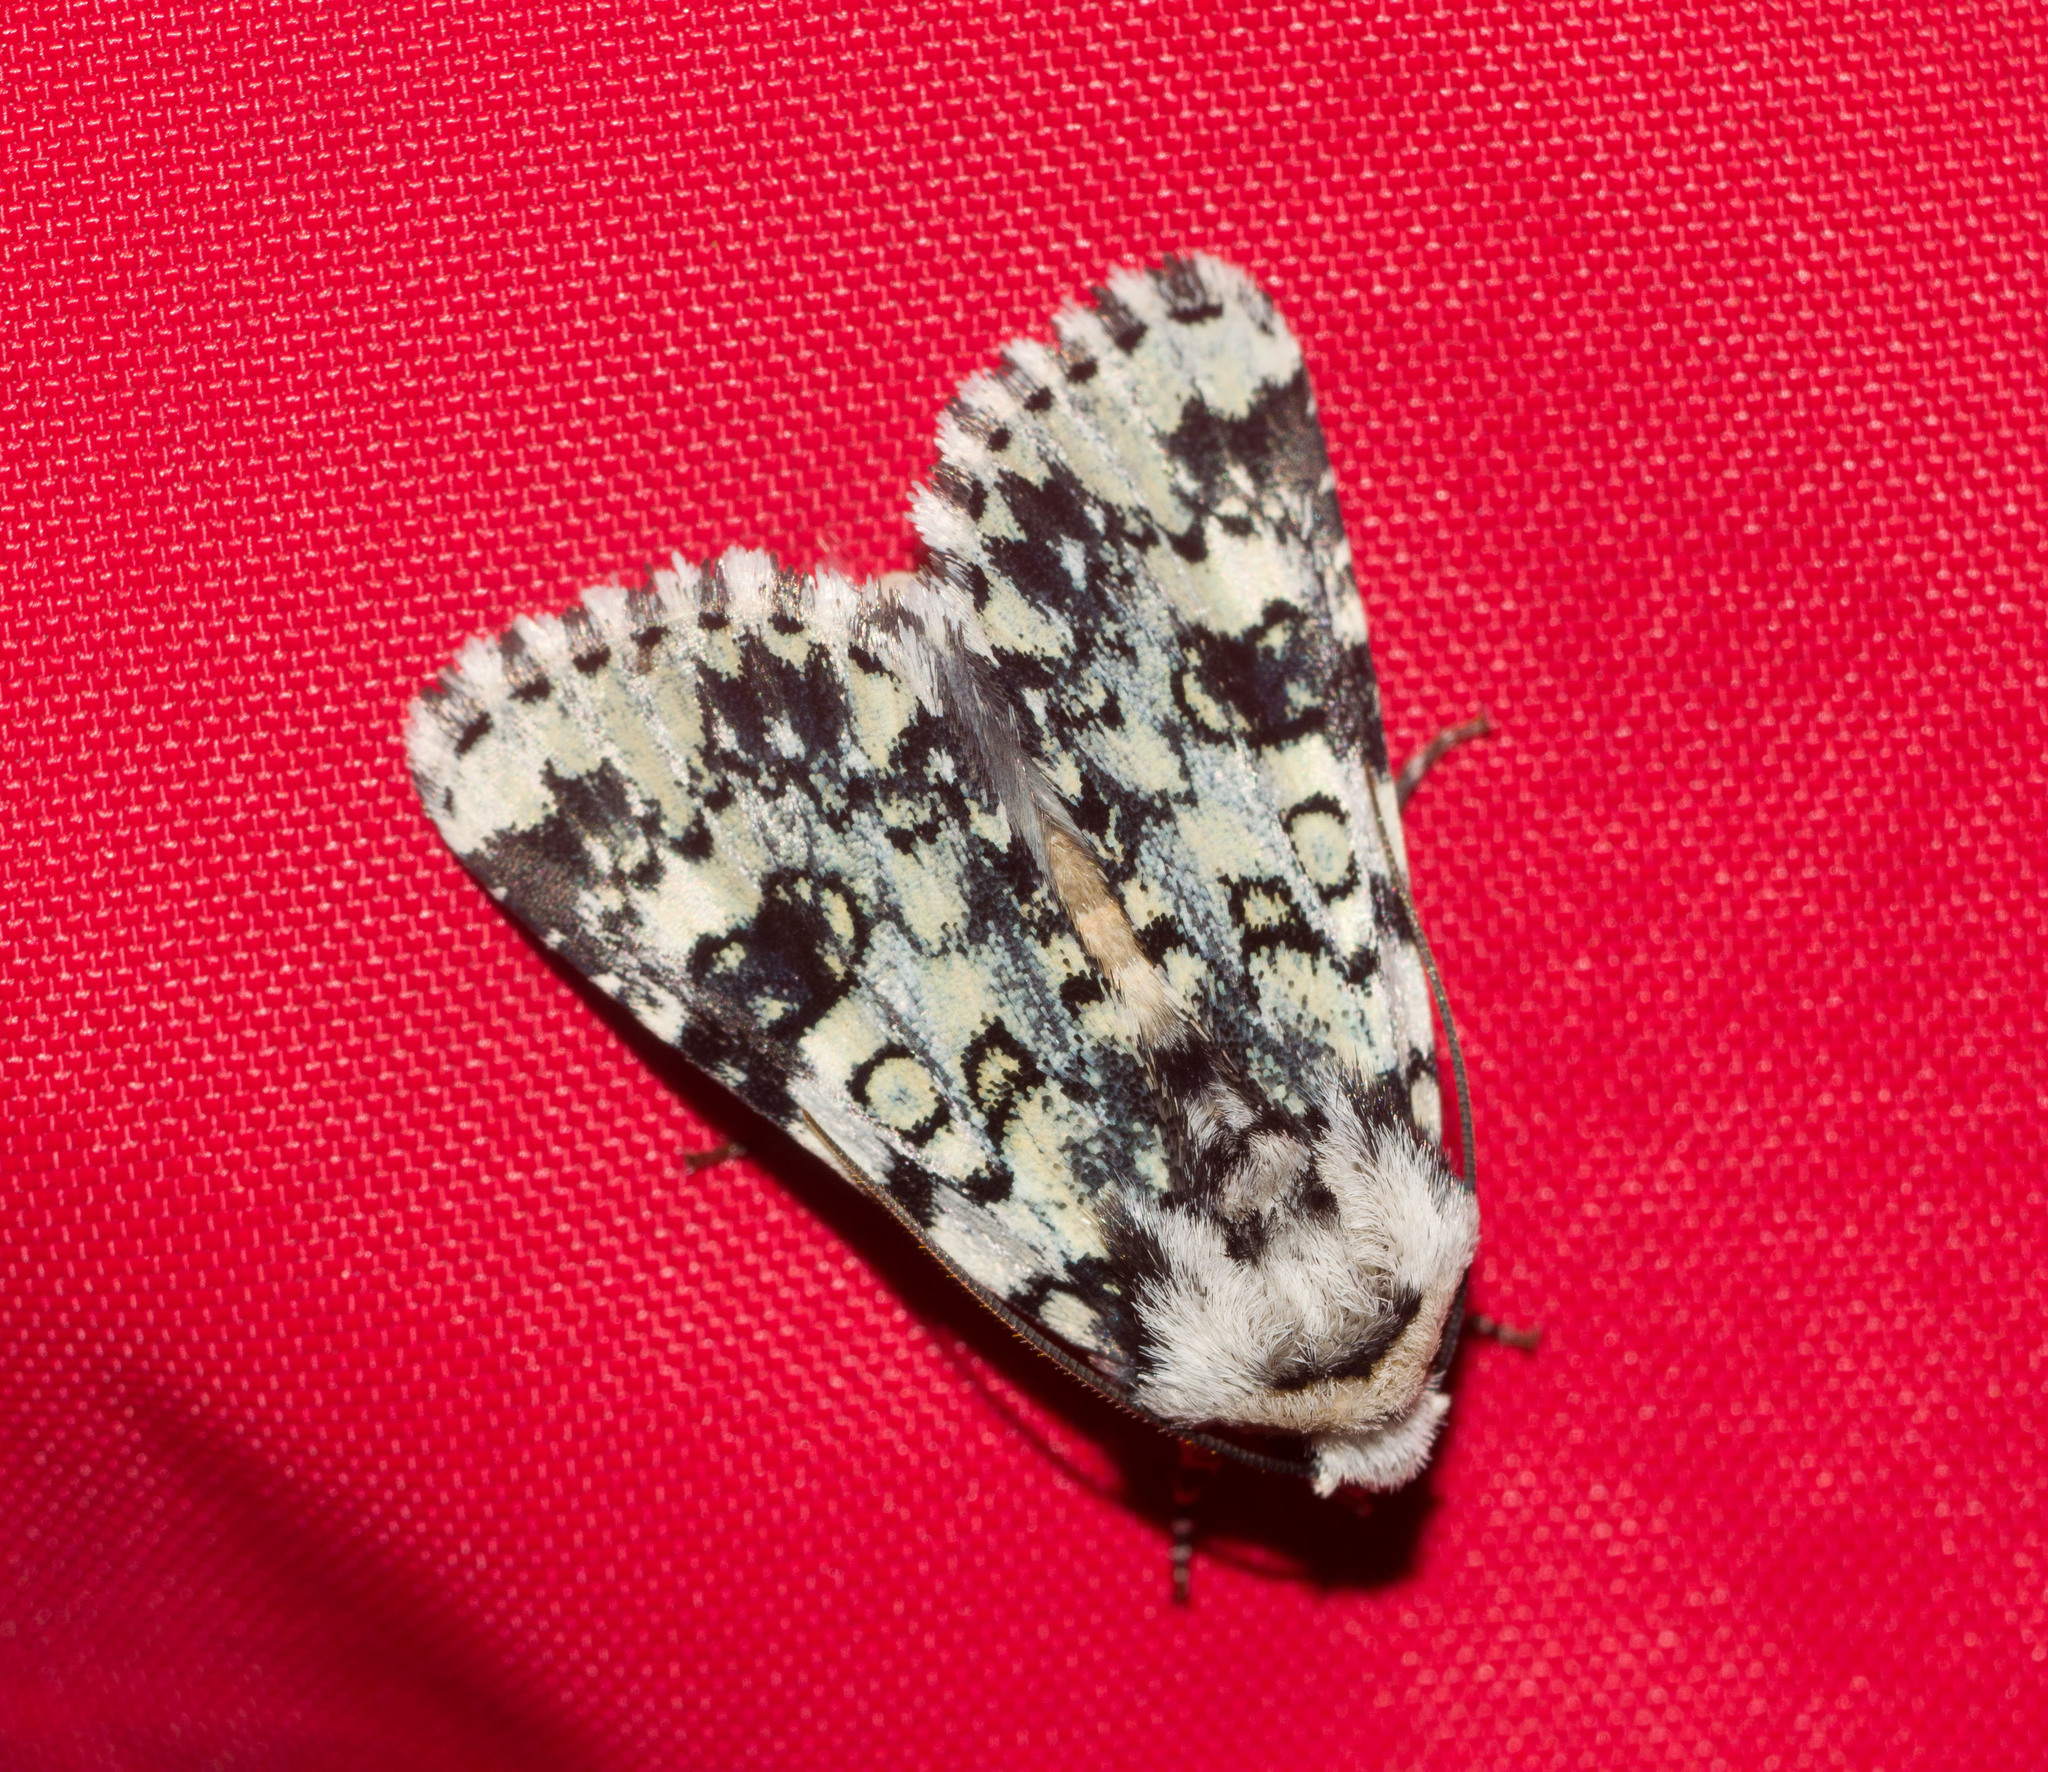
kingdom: Animalia
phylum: Arthropoda
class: Insecta
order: Lepidoptera
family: Noctuidae
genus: Heliothis
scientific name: Heliothis melanoleuca
